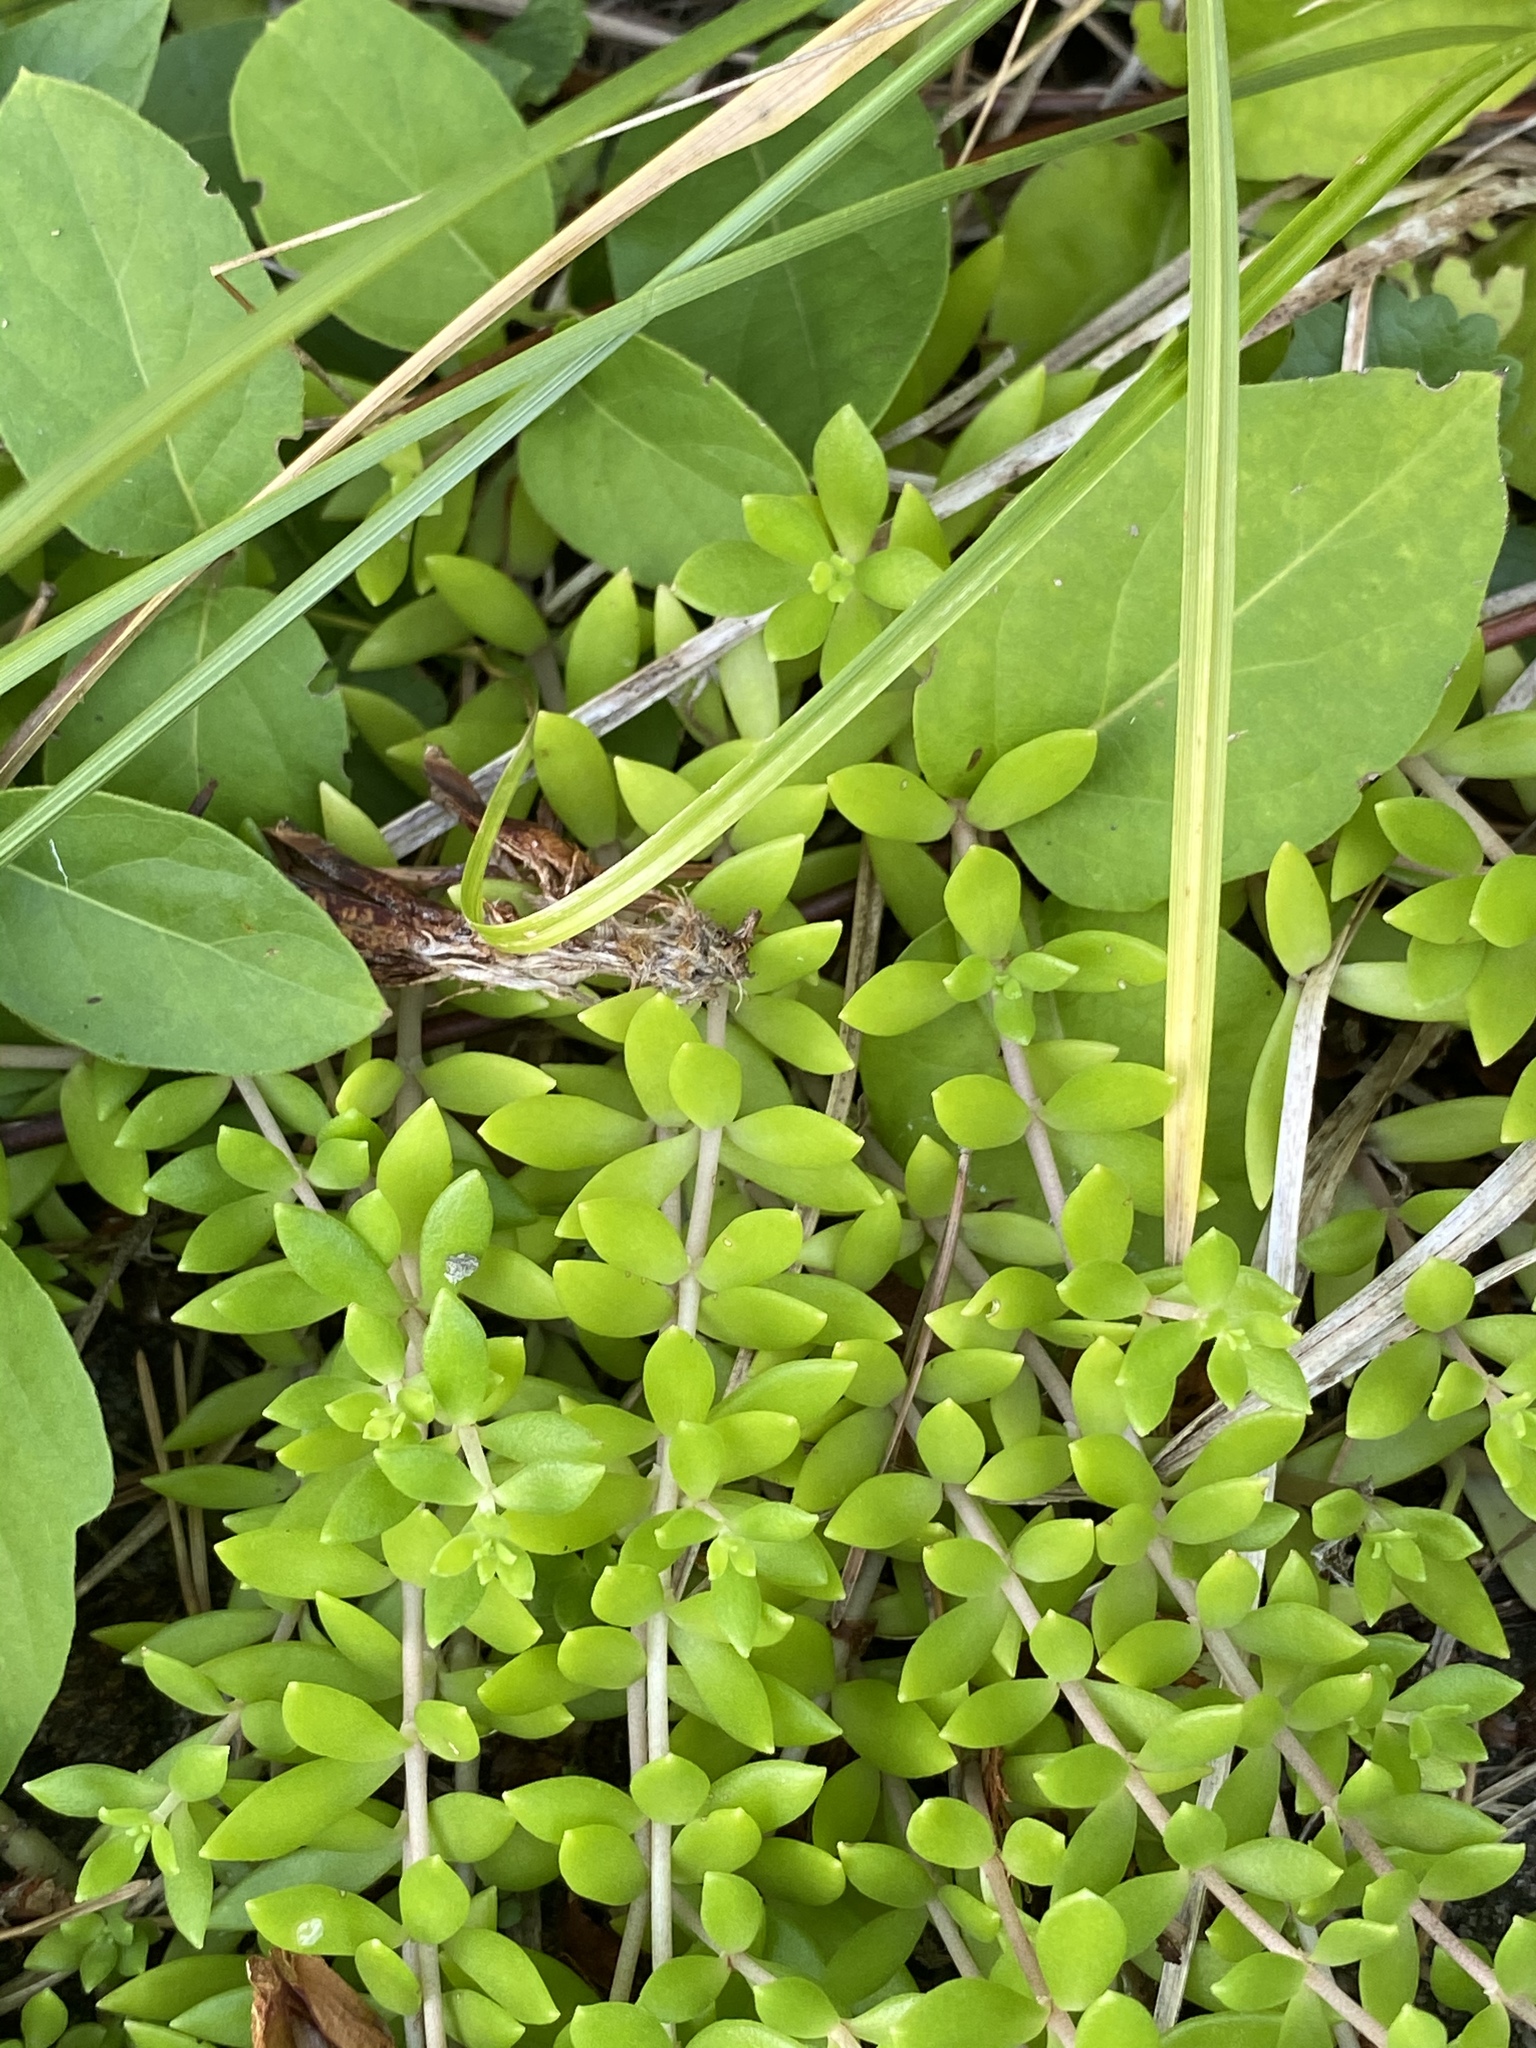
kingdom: Plantae
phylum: Tracheophyta
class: Magnoliopsida
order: Saxifragales
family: Crassulaceae
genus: Sedum
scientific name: Sedum sarmentosum
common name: Stringy stonecrop
